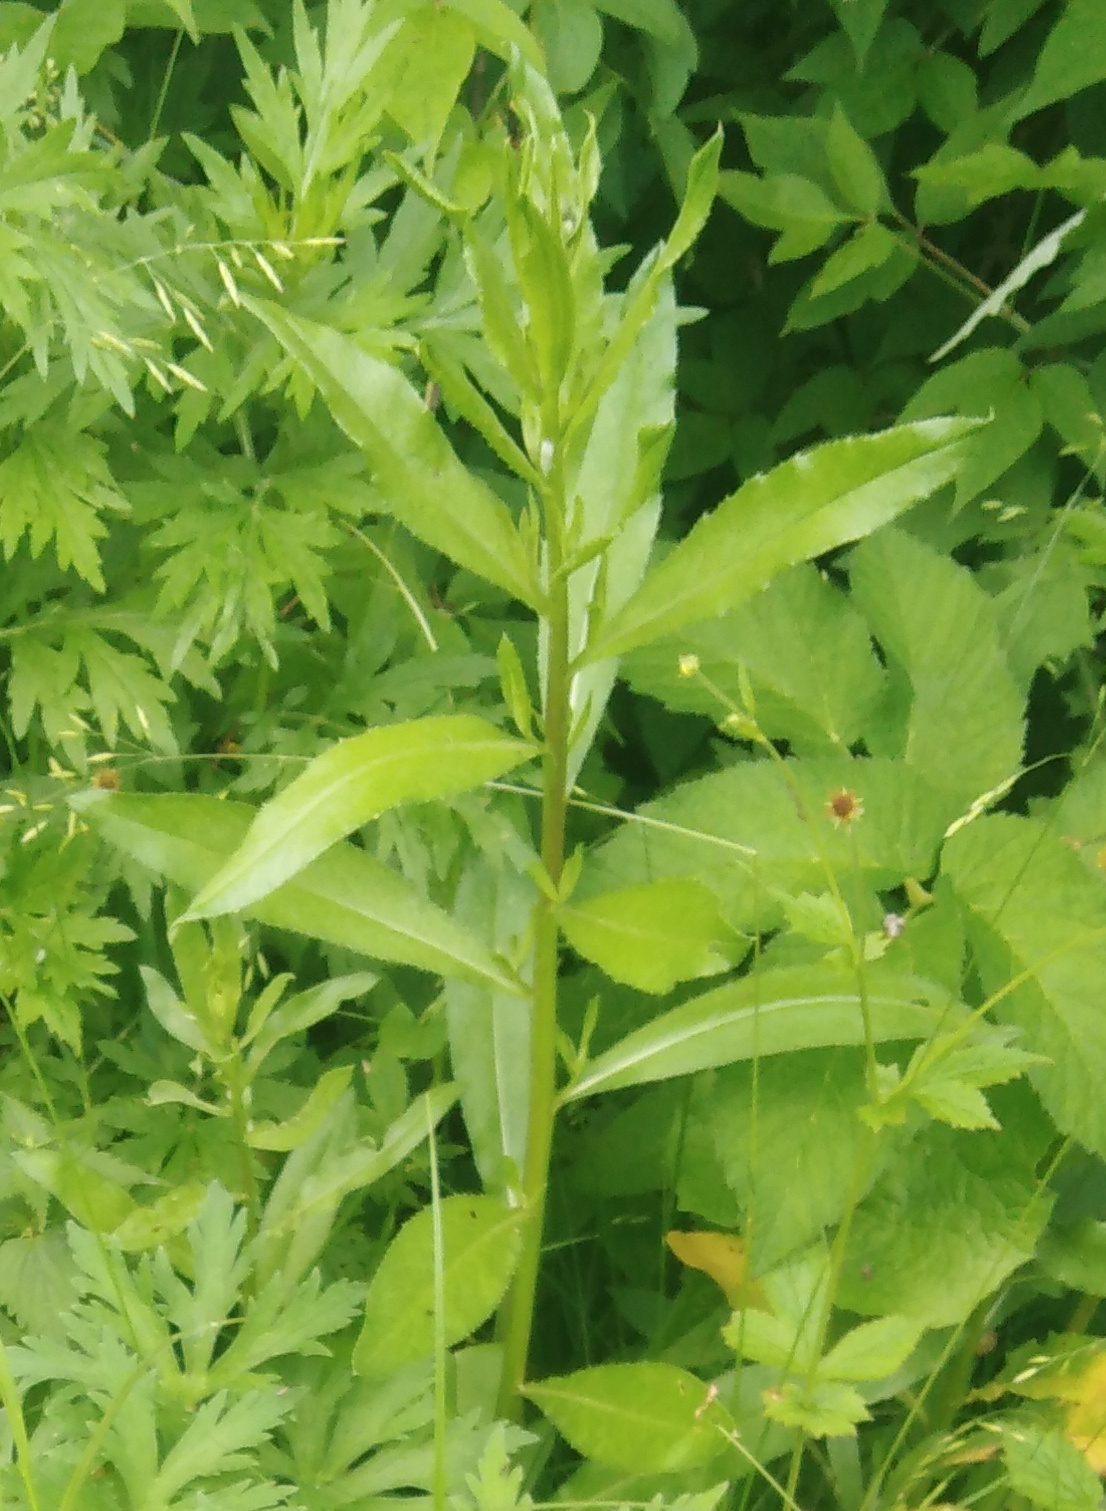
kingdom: Plantae
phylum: Tracheophyta
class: Magnoliopsida
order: Asterales
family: Asteraceae
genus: Cirsium
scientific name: Cirsium arvense
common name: Creeping thistle
